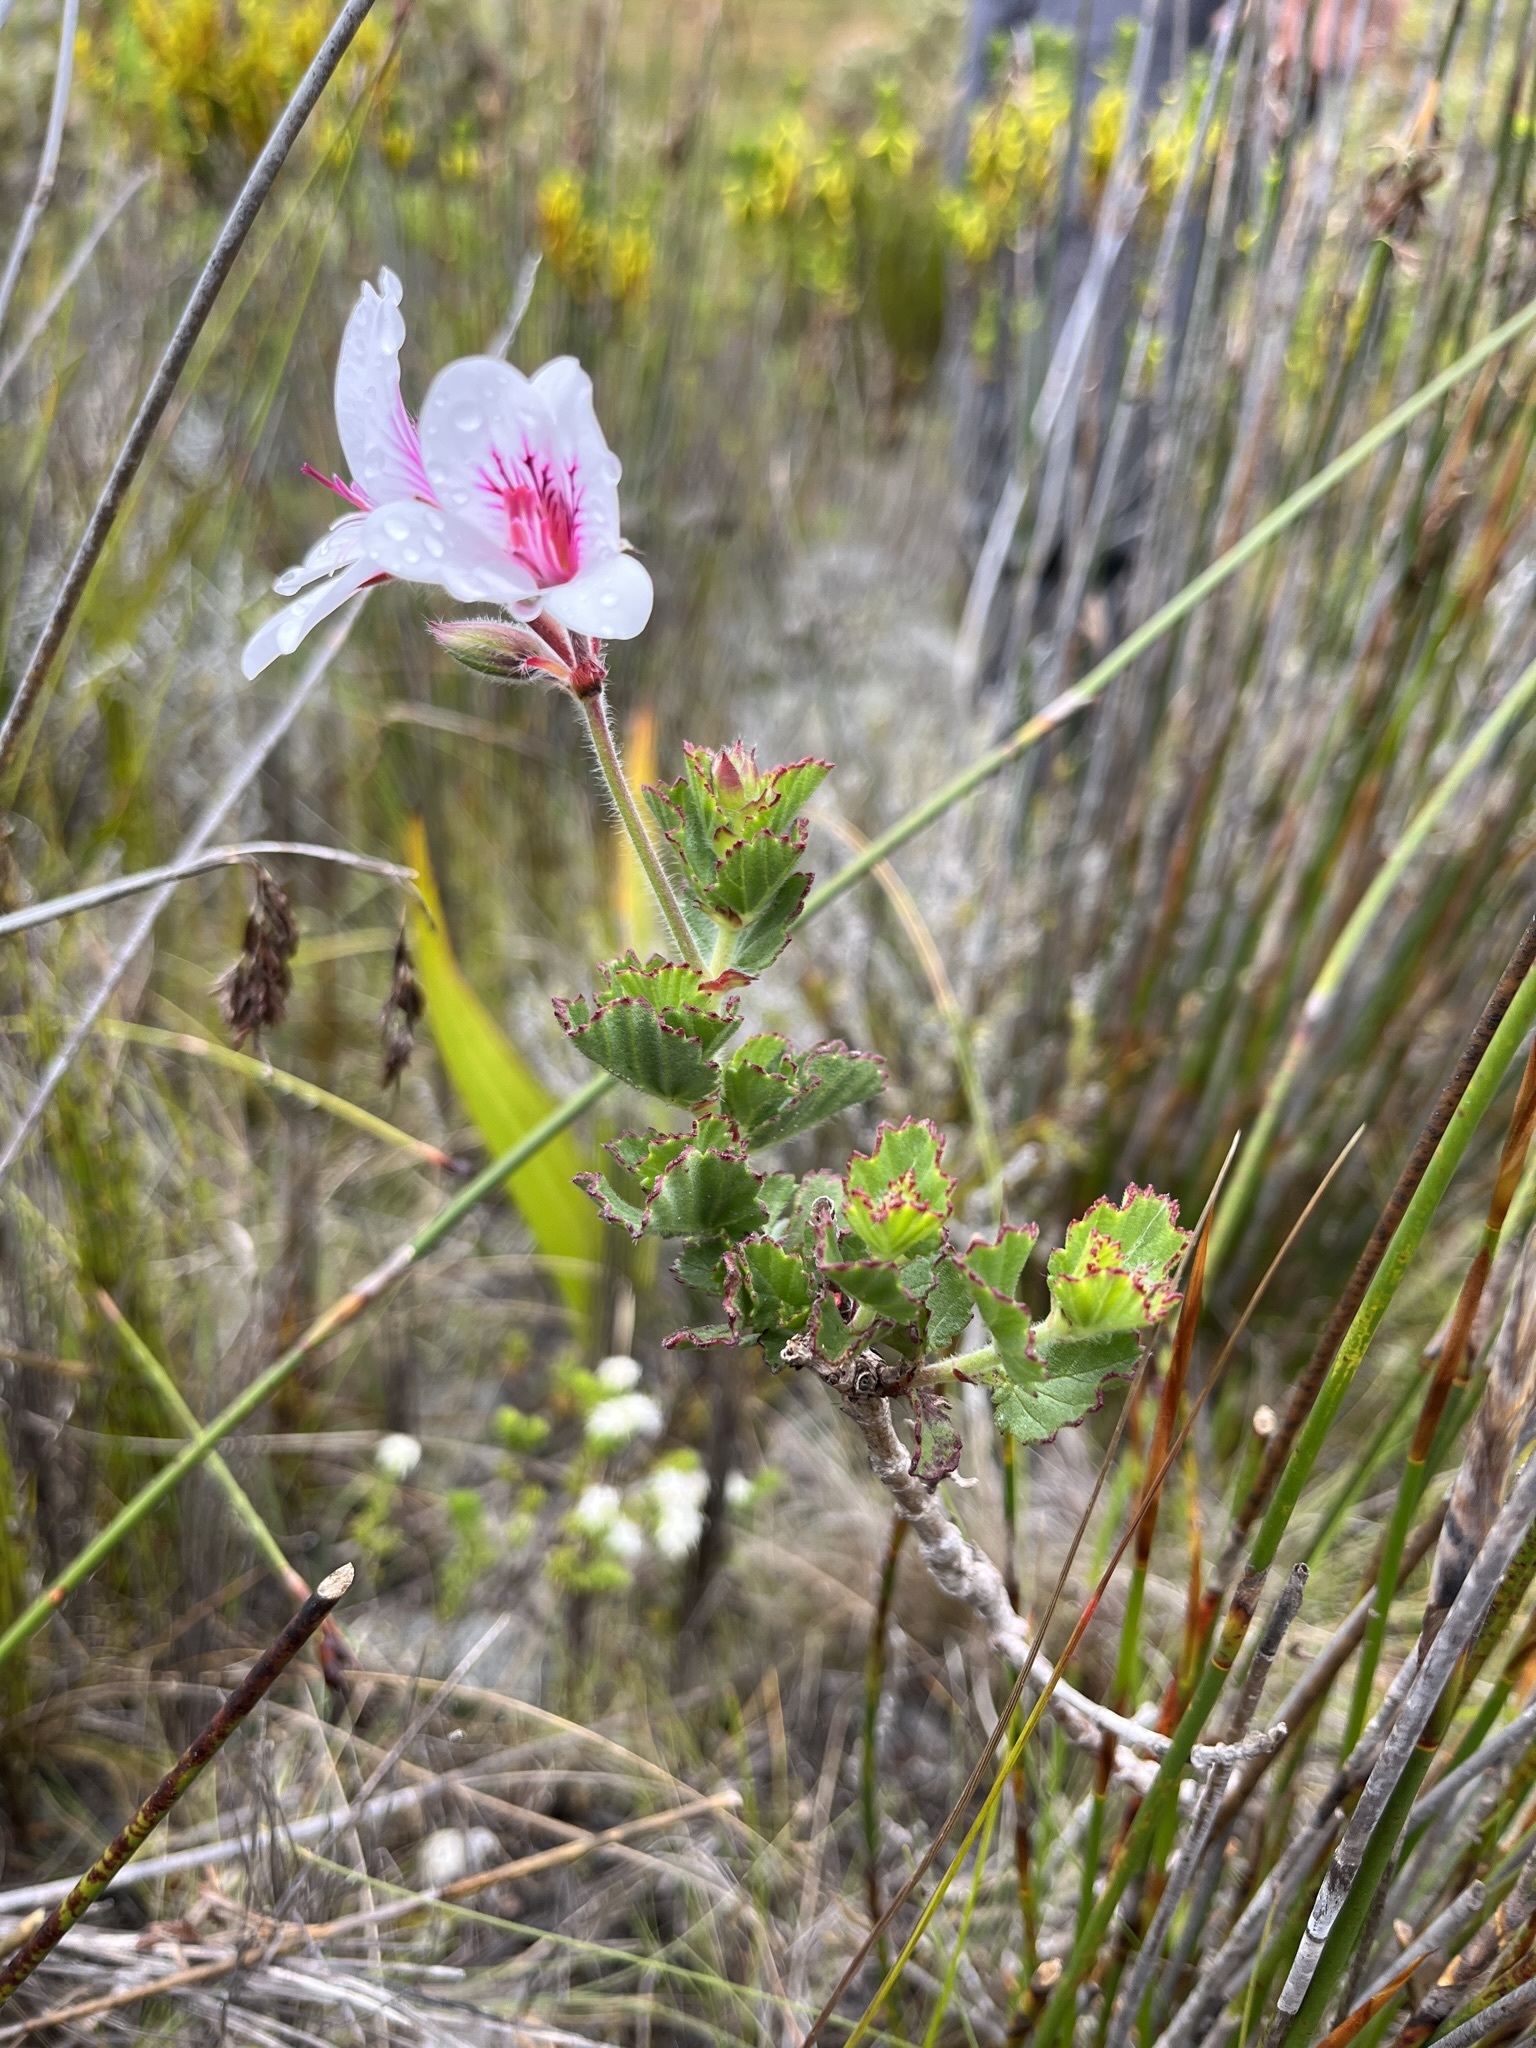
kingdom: Plantae
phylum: Tracheophyta
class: Magnoliopsida
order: Geraniales
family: Geraniaceae
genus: Pelargonium
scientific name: Pelargonium betulinum
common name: Birch-leaf pelargonium
